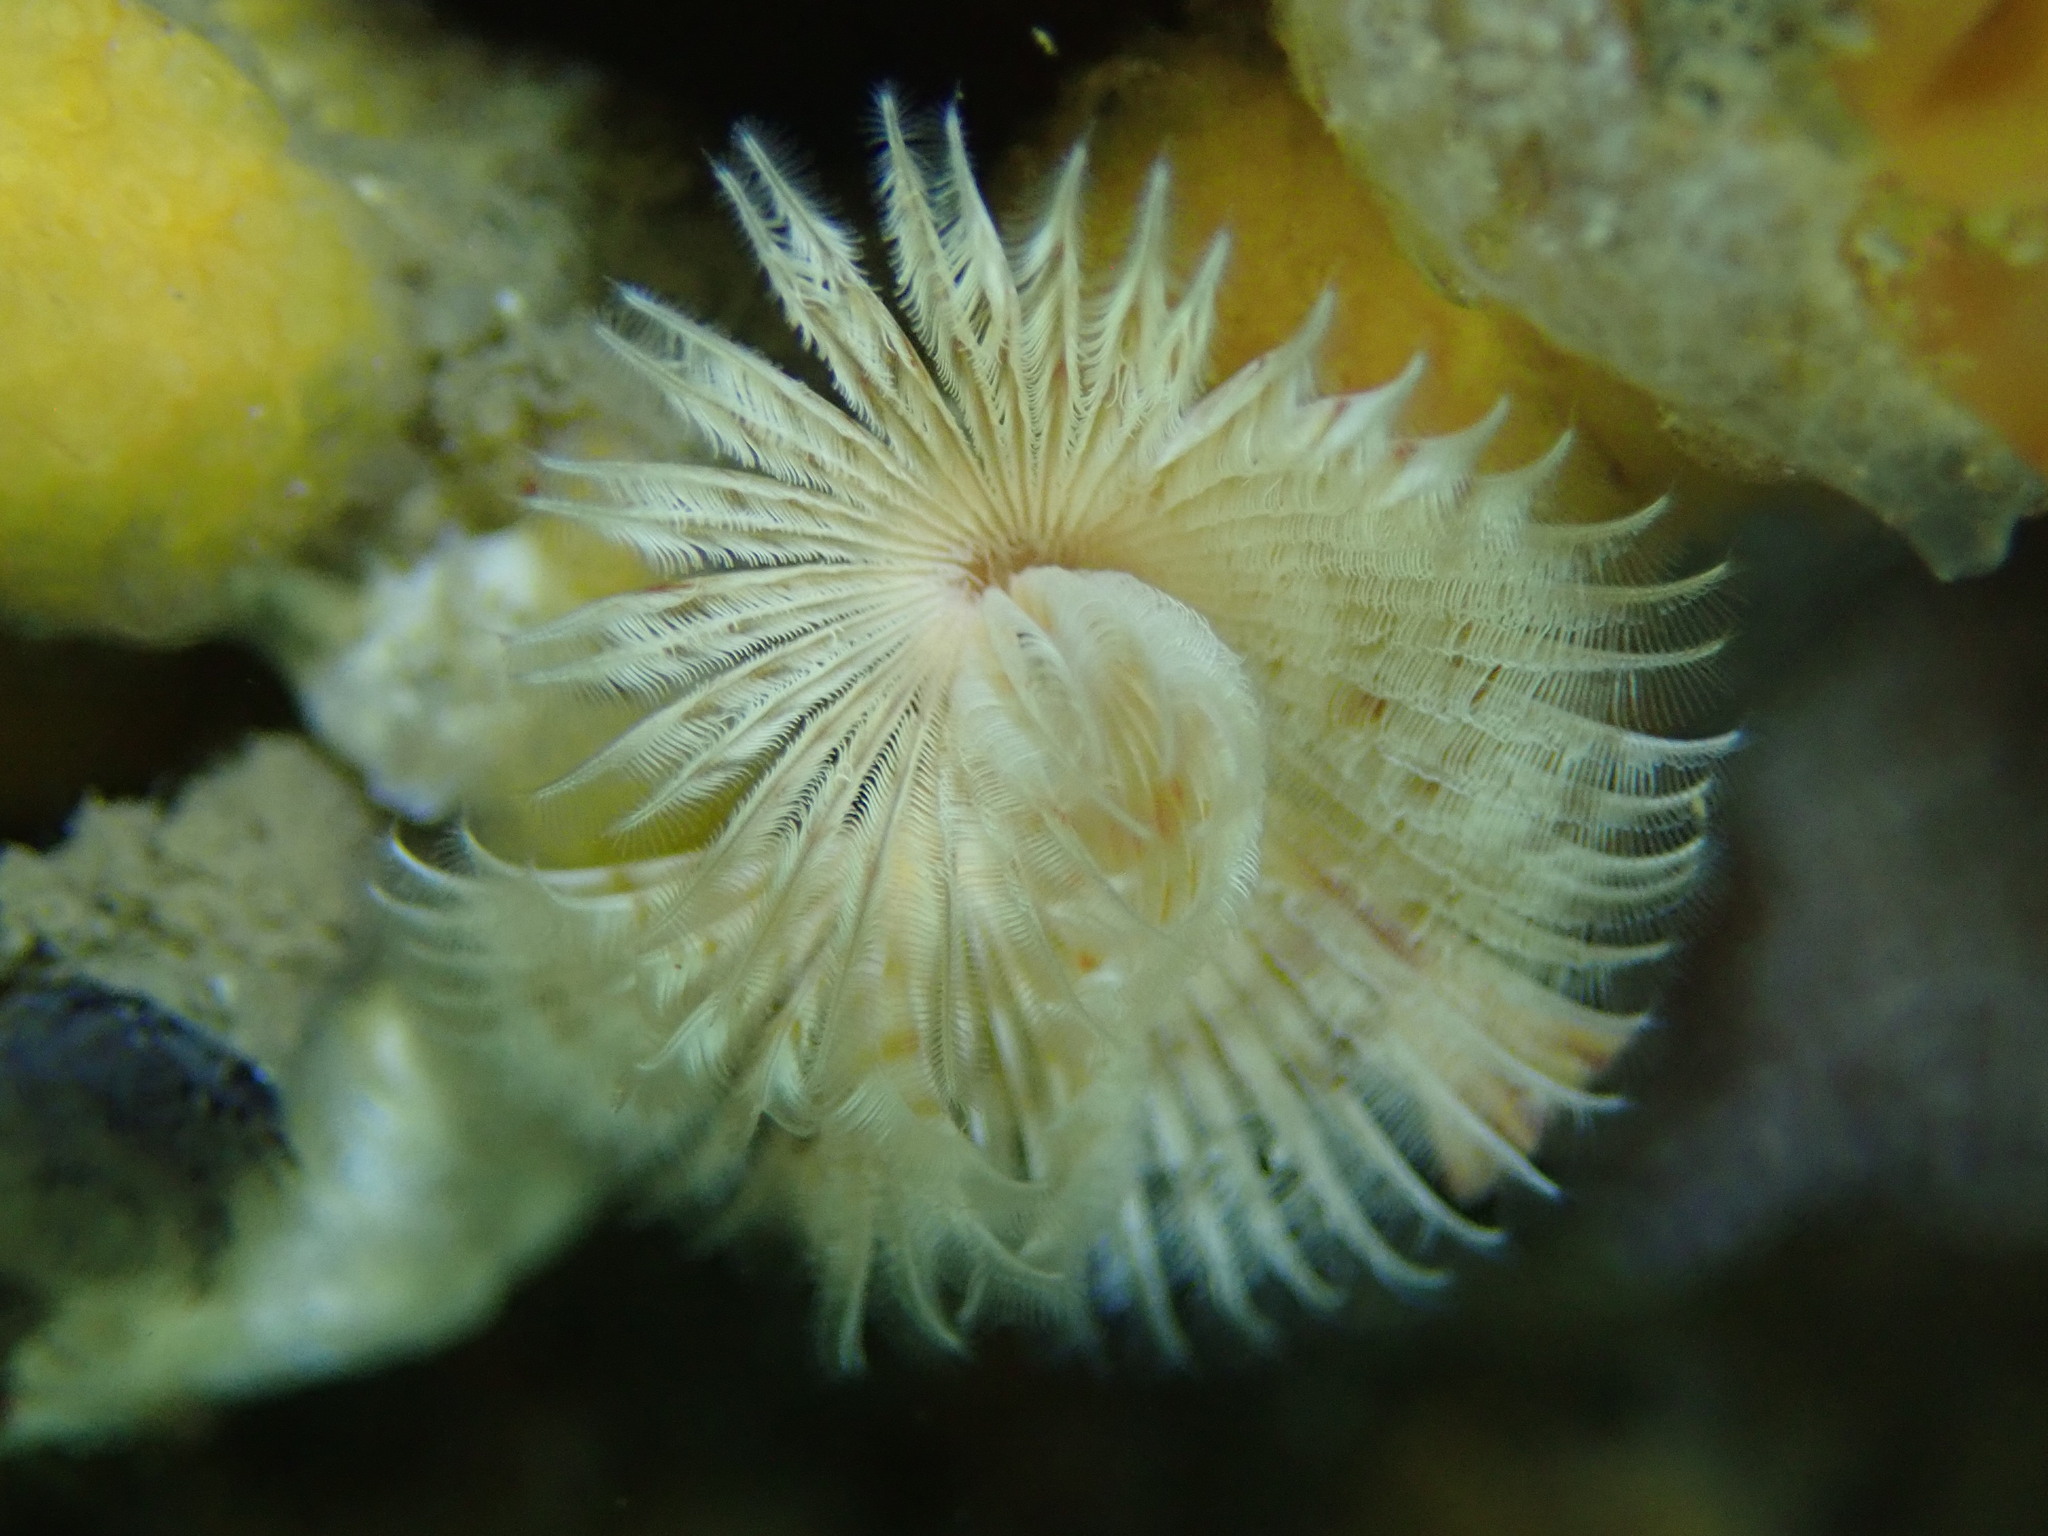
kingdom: Animalia
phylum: Annelida
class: Polychaeta
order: Sabellida
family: Serpulidae
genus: Serpula
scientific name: Serpula columbiana
